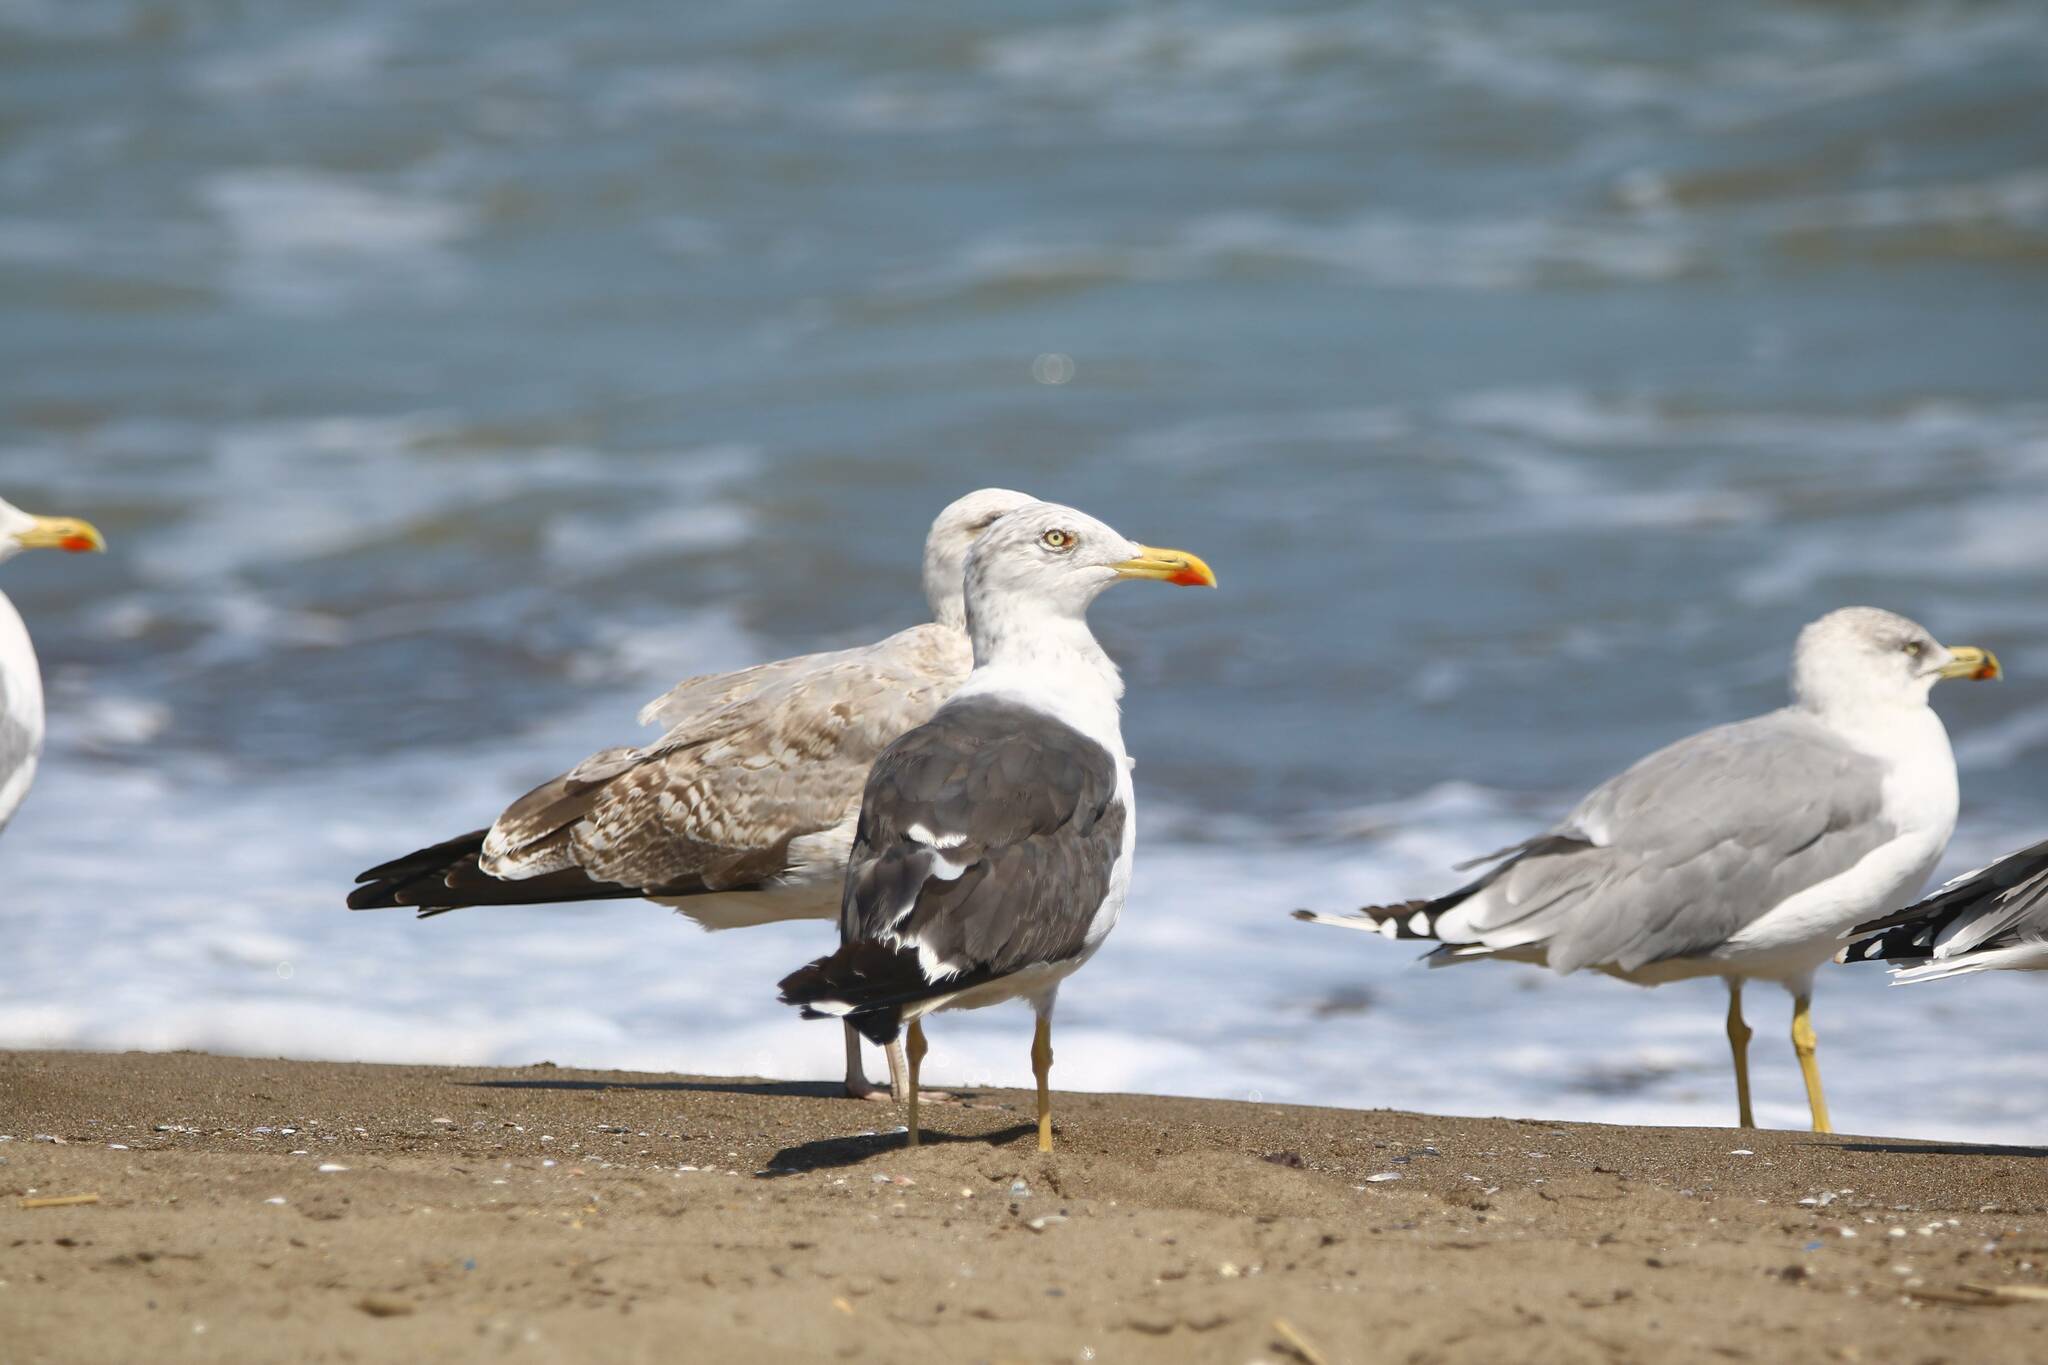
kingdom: Animalia
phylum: Chordata
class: Aves
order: Charadriiformes
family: Laridae
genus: Larus
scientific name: Larus fuscus
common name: Lesser black-backed gull
